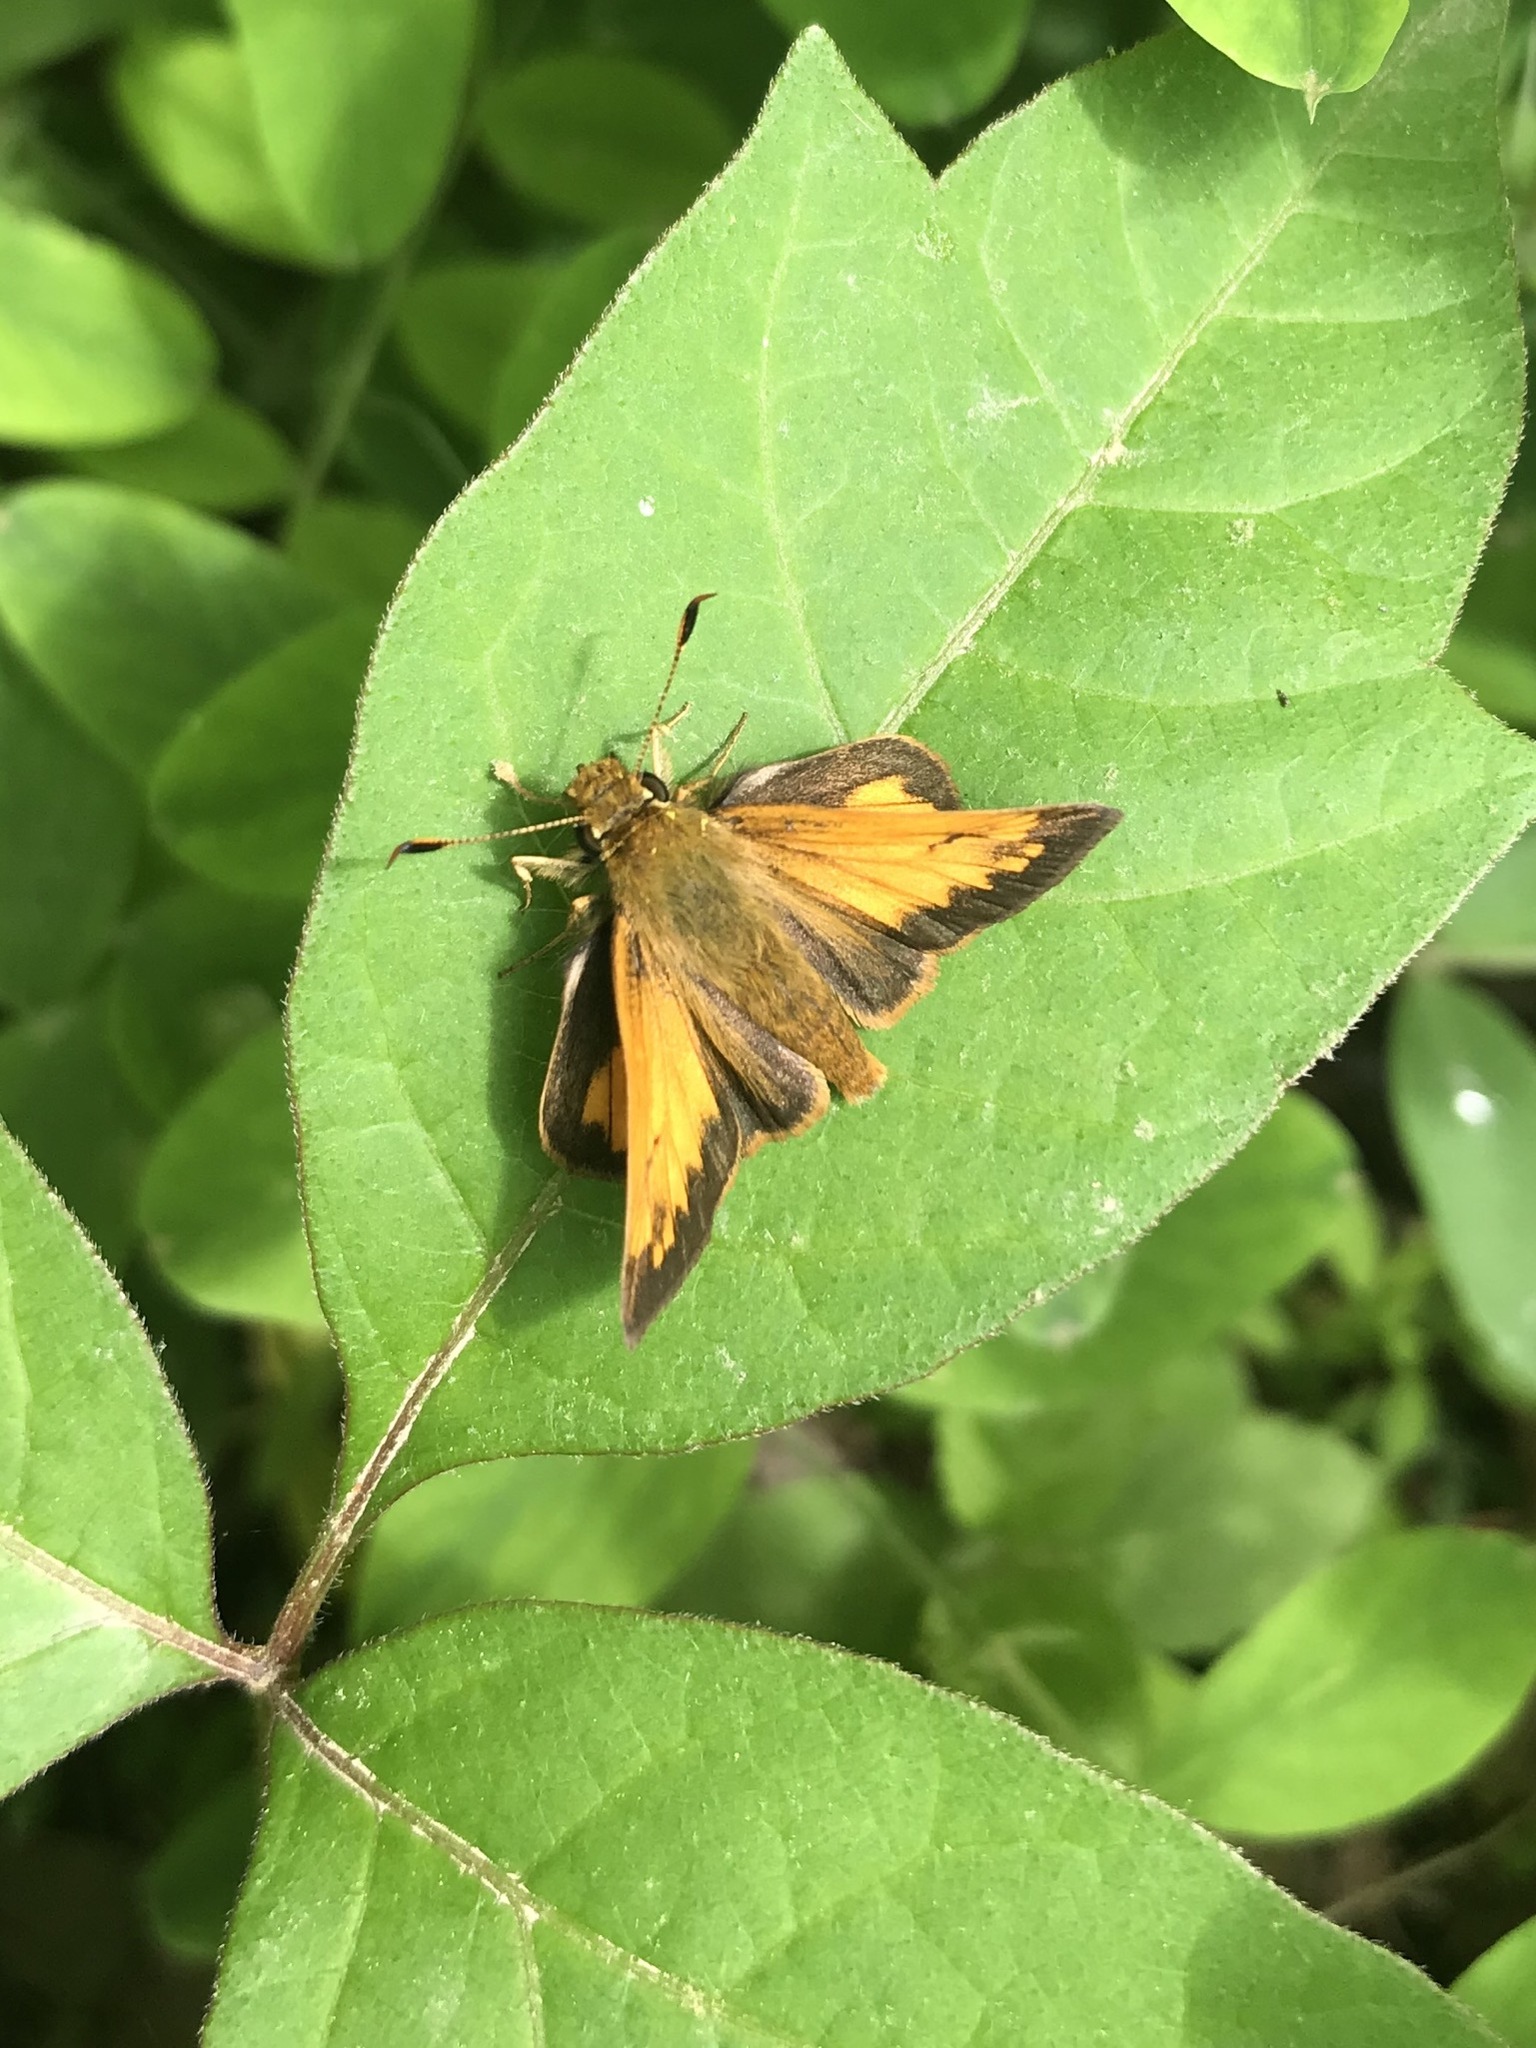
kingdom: Animalia
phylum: Arthropoda
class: Insecta
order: Lepidoptera
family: Hesperiidae
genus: Lon
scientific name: Lon hobomok
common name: Hobomok skipper
